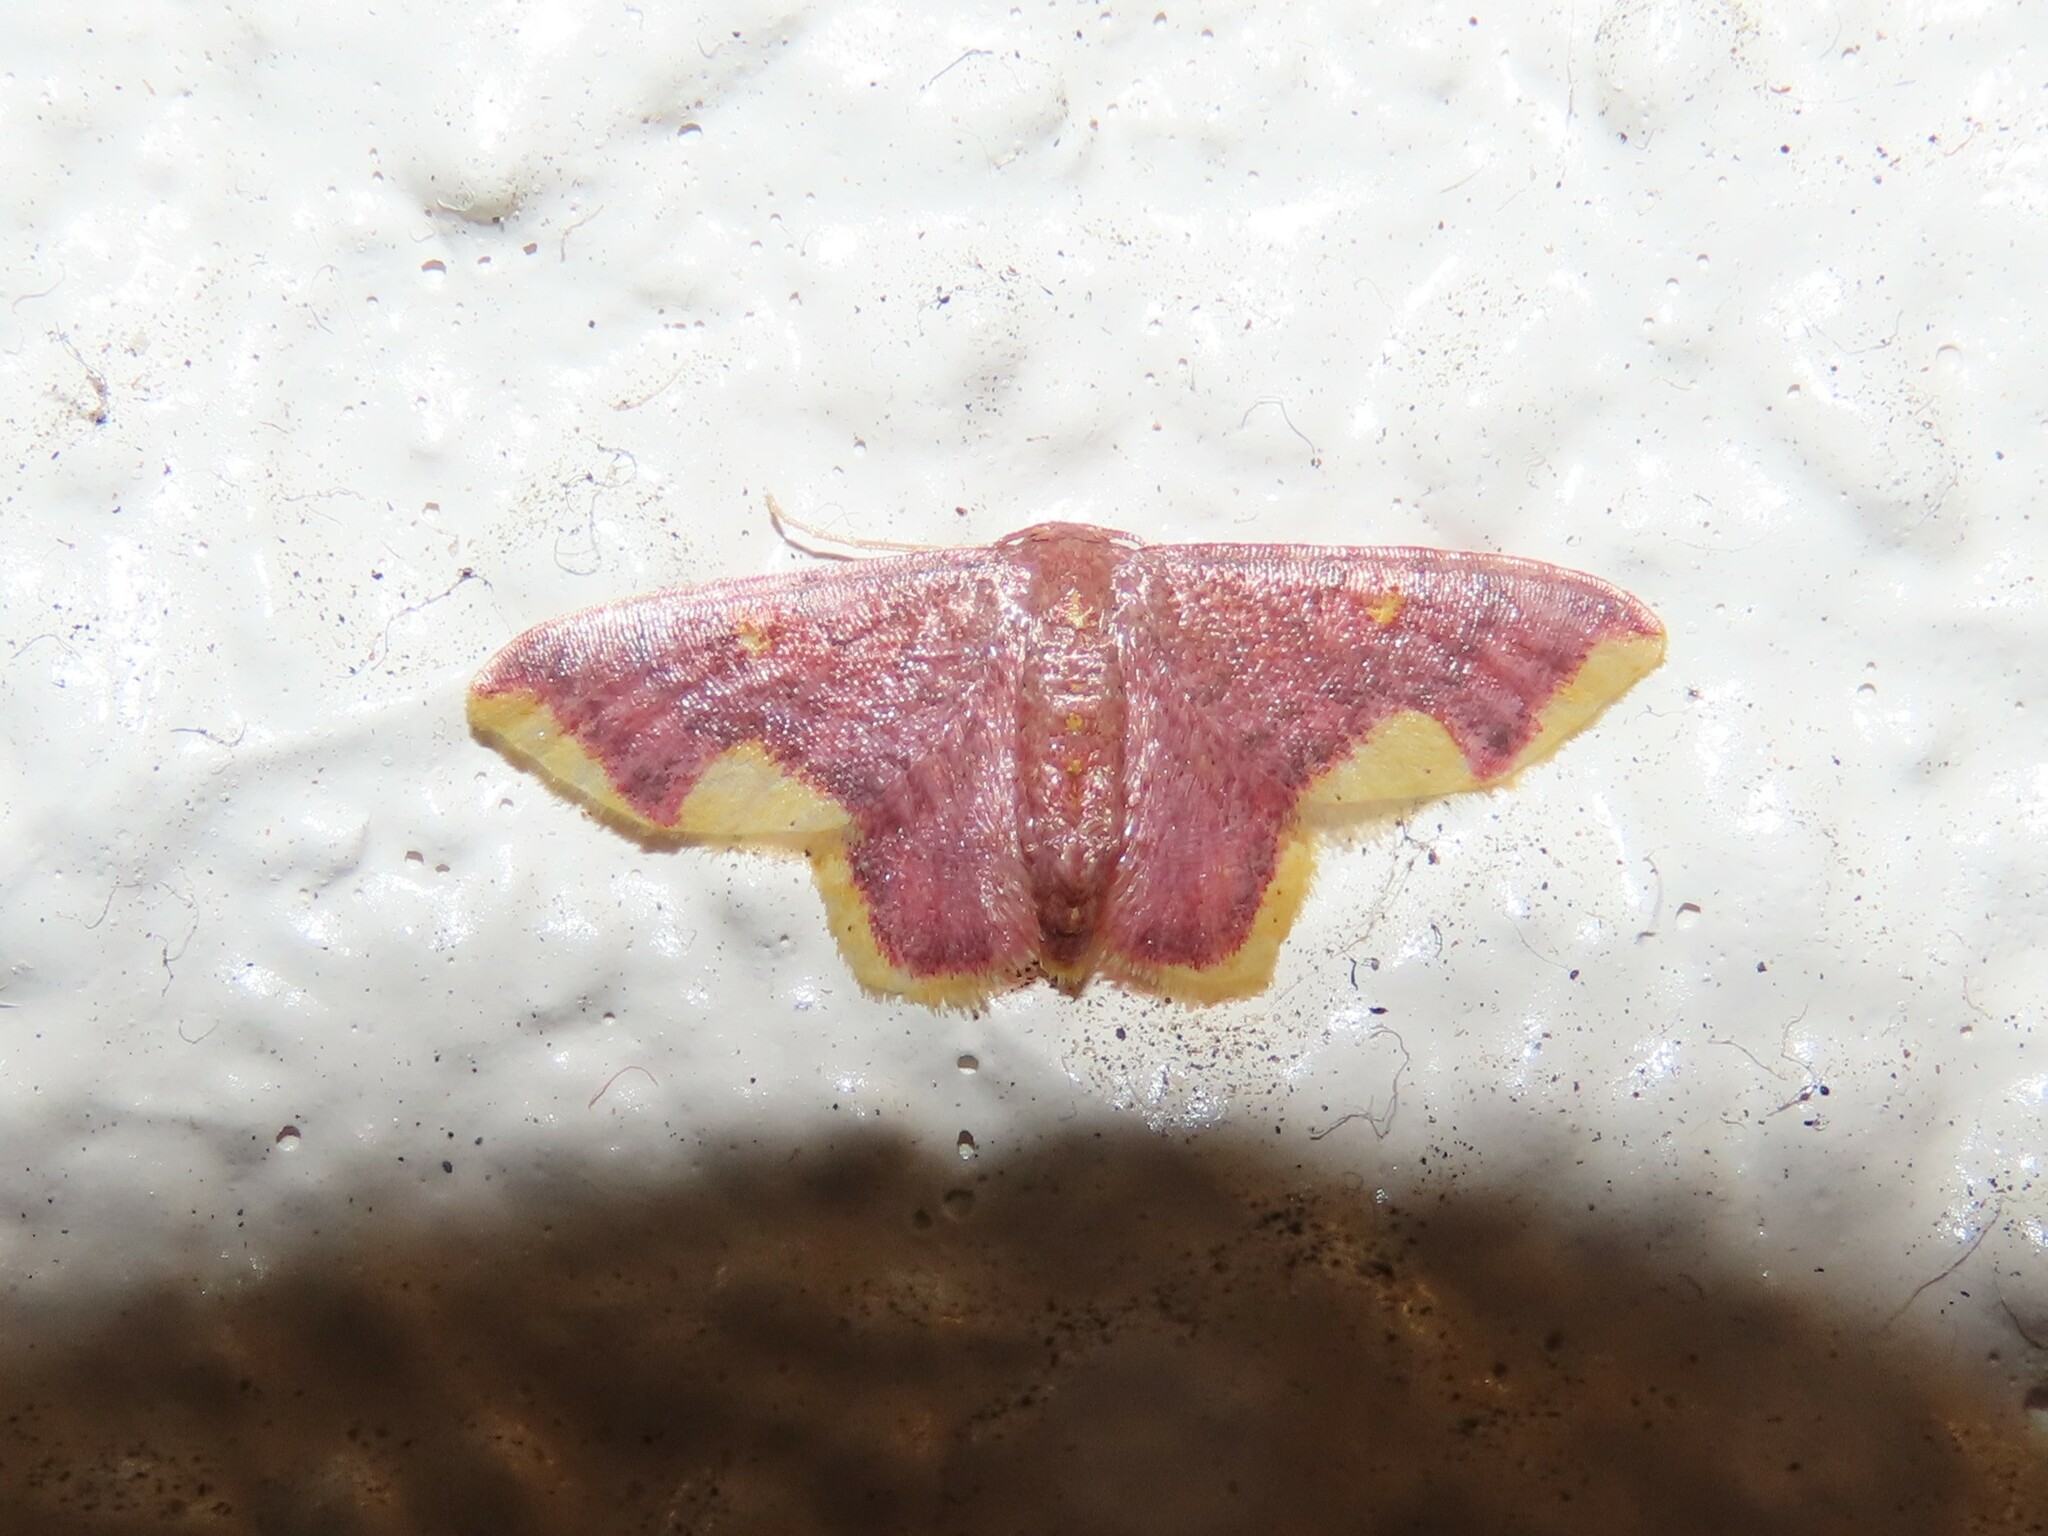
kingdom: Animalia
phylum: Arthropoda
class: Insecta
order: Lepidoptera
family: Geometridae
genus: Lophosis
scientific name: Lophosis labeculata
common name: Stained lophosis moth
